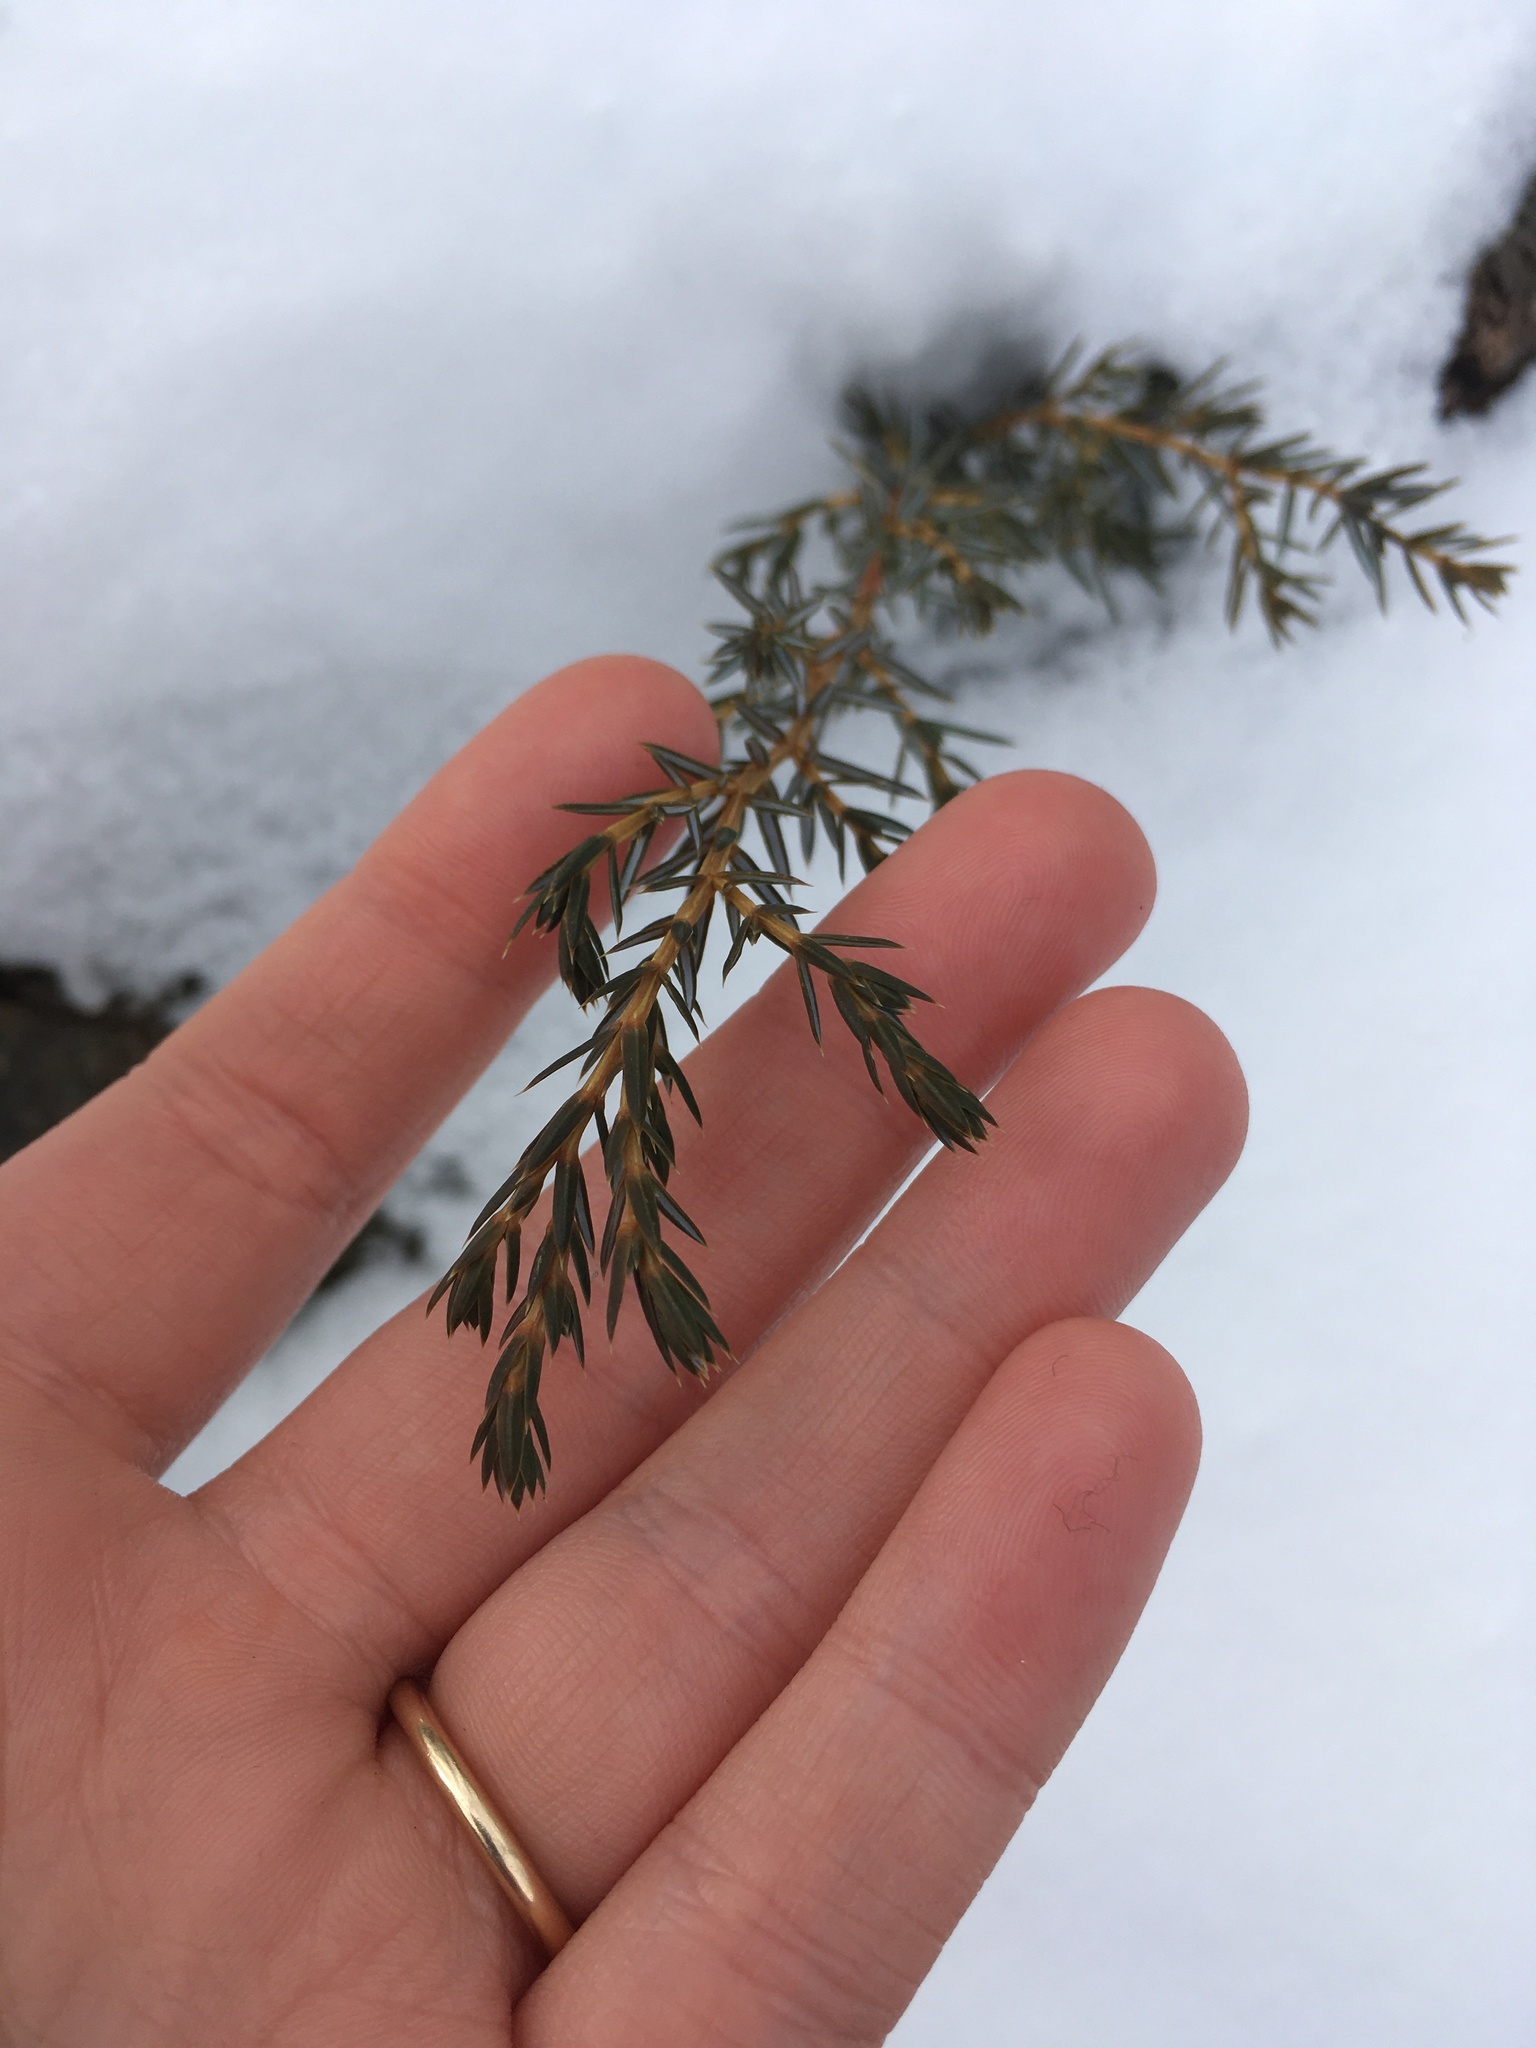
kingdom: Plantae
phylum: Tracheophyta
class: Pinopsida
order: Pinales
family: Cupressaceae
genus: Juniperus
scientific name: Juniperus communis
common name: Common juniper
